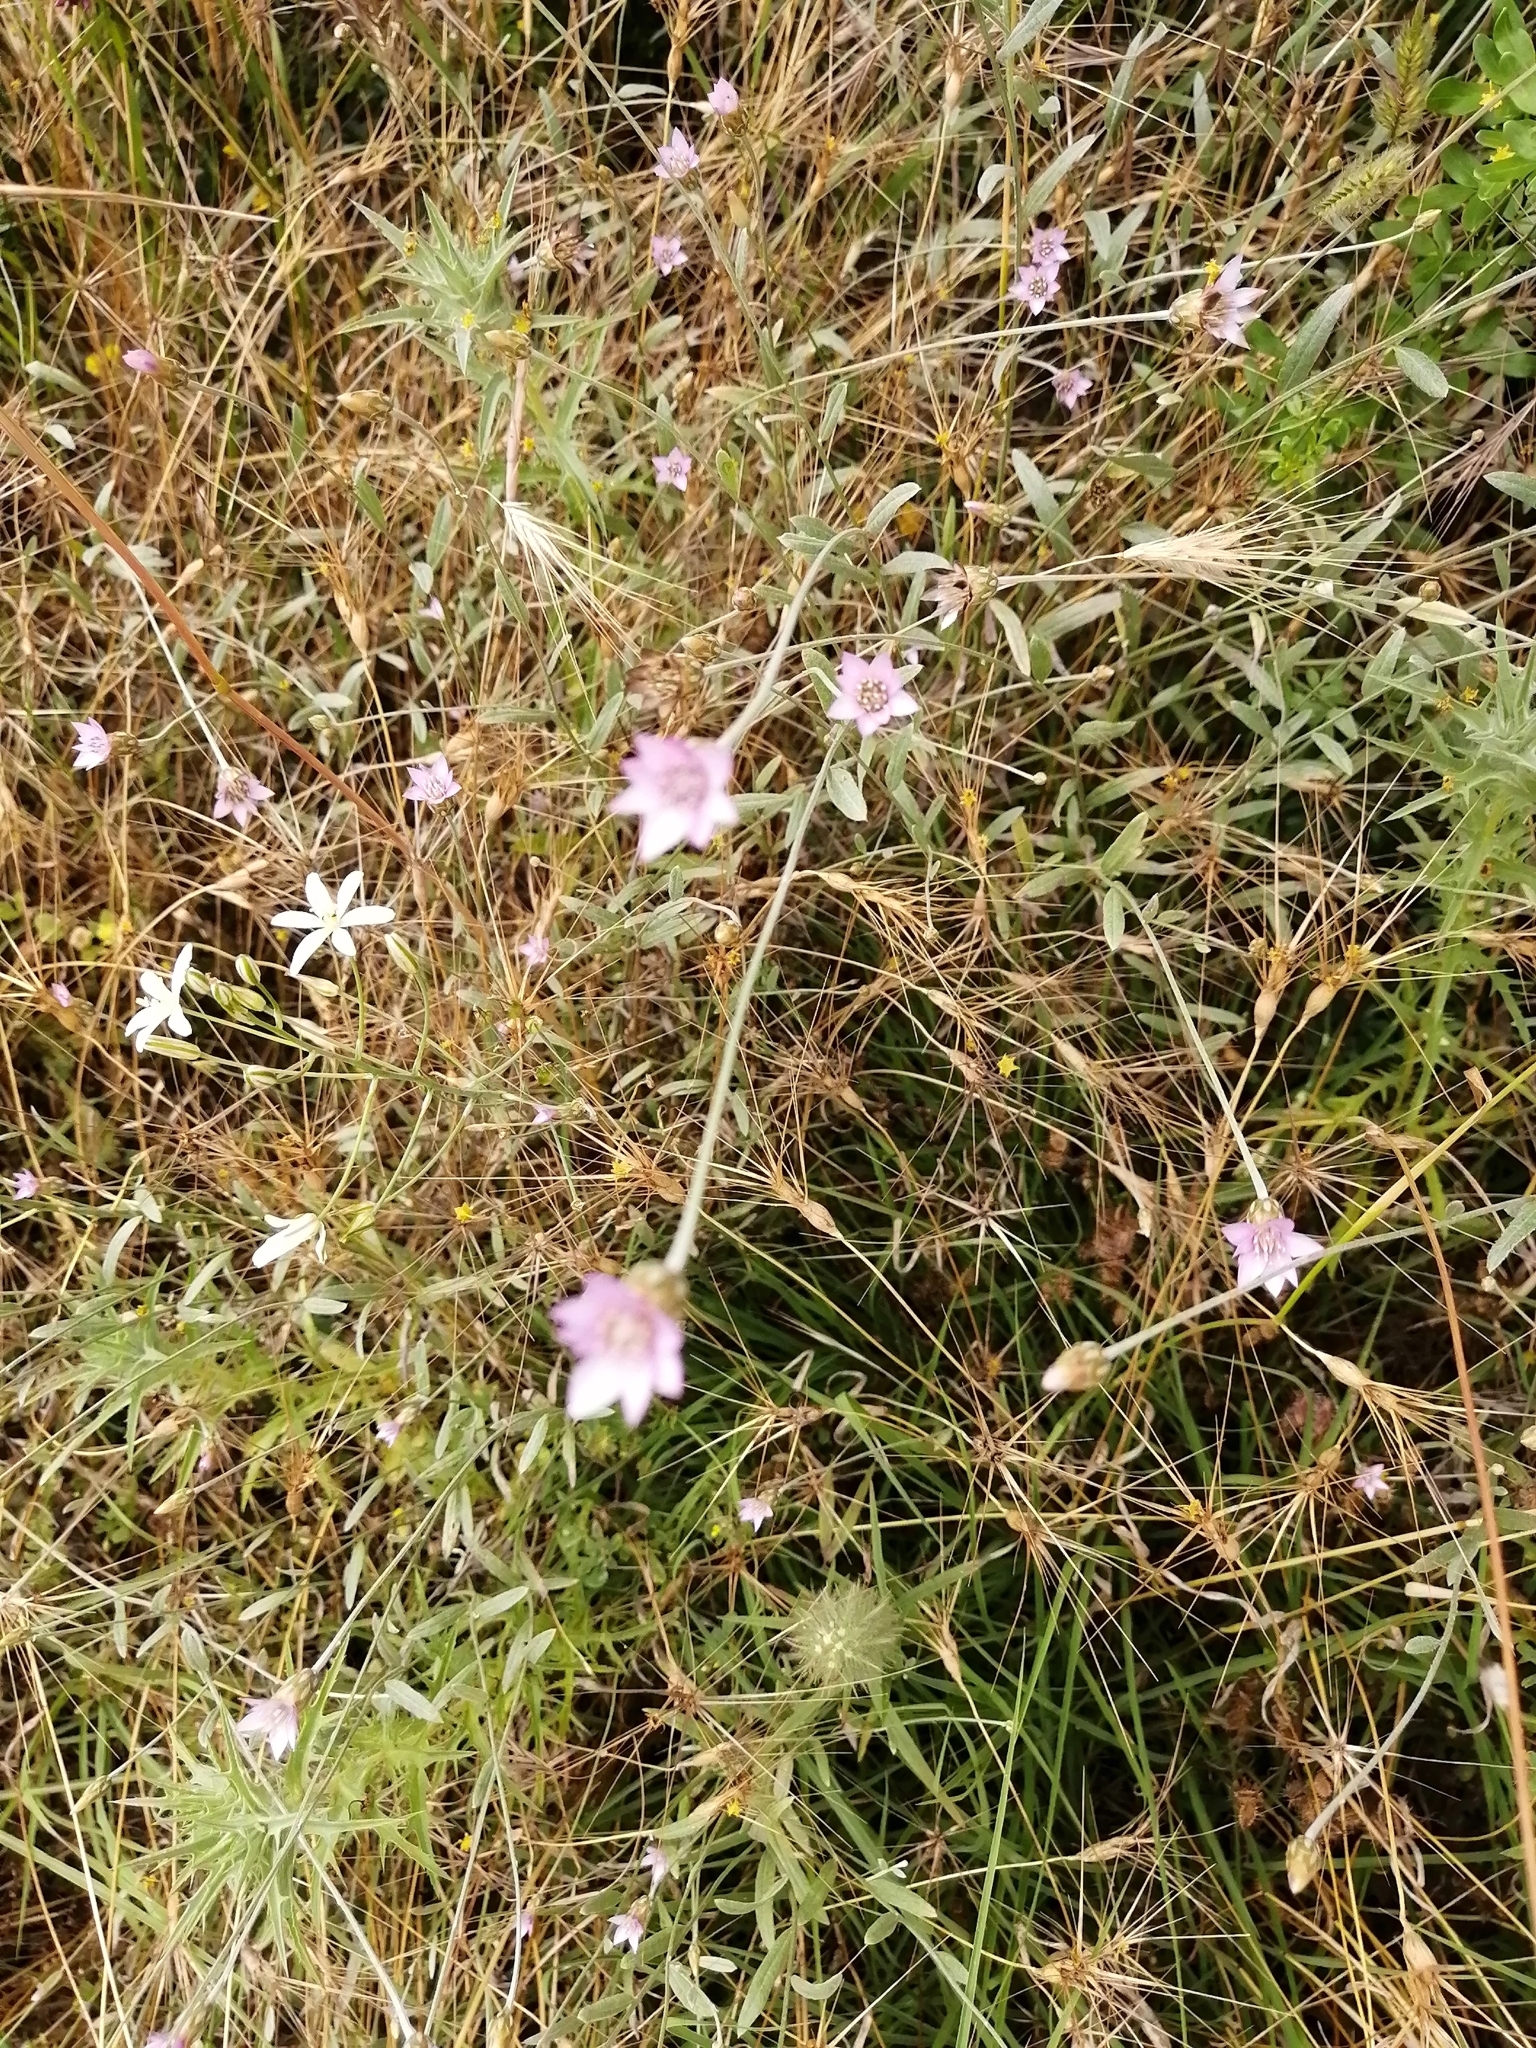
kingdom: Plantae
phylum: Tracheophyta
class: Magnoliopsida
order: Asterales
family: Asteraceae
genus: Xeranthemum
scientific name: Xeranthemum cylindraceum
